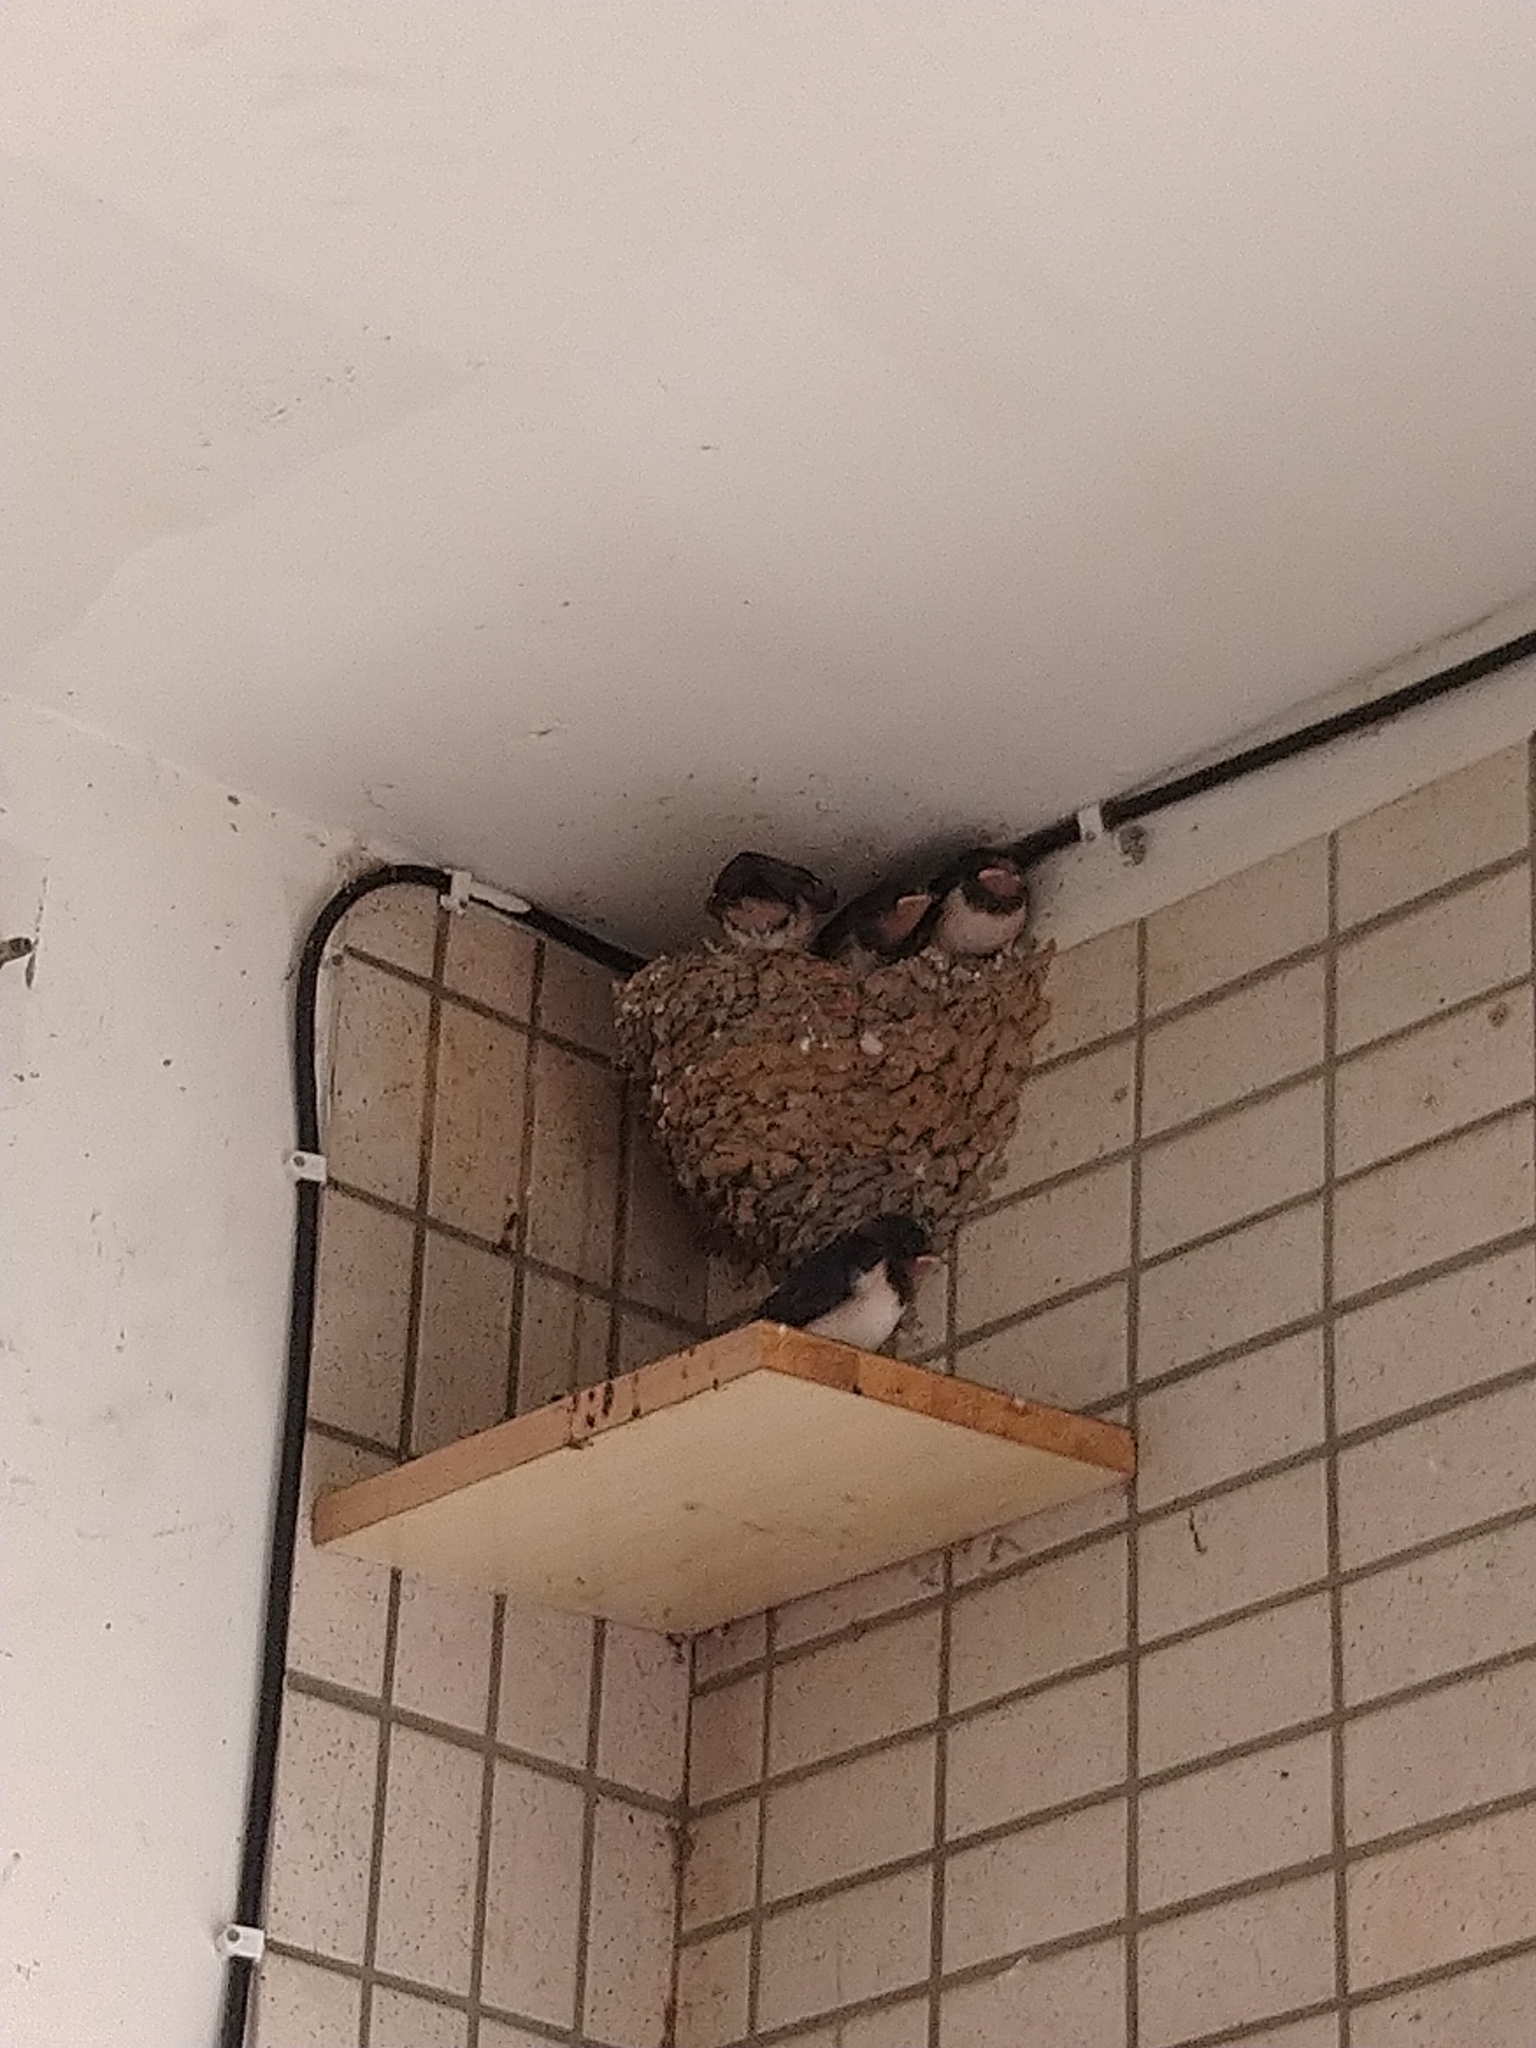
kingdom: Animalia
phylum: Chordata
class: Aves
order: Passeriformes
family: Hirundinidae
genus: Hirundo
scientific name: Hirundo rustica
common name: Barn swallow
